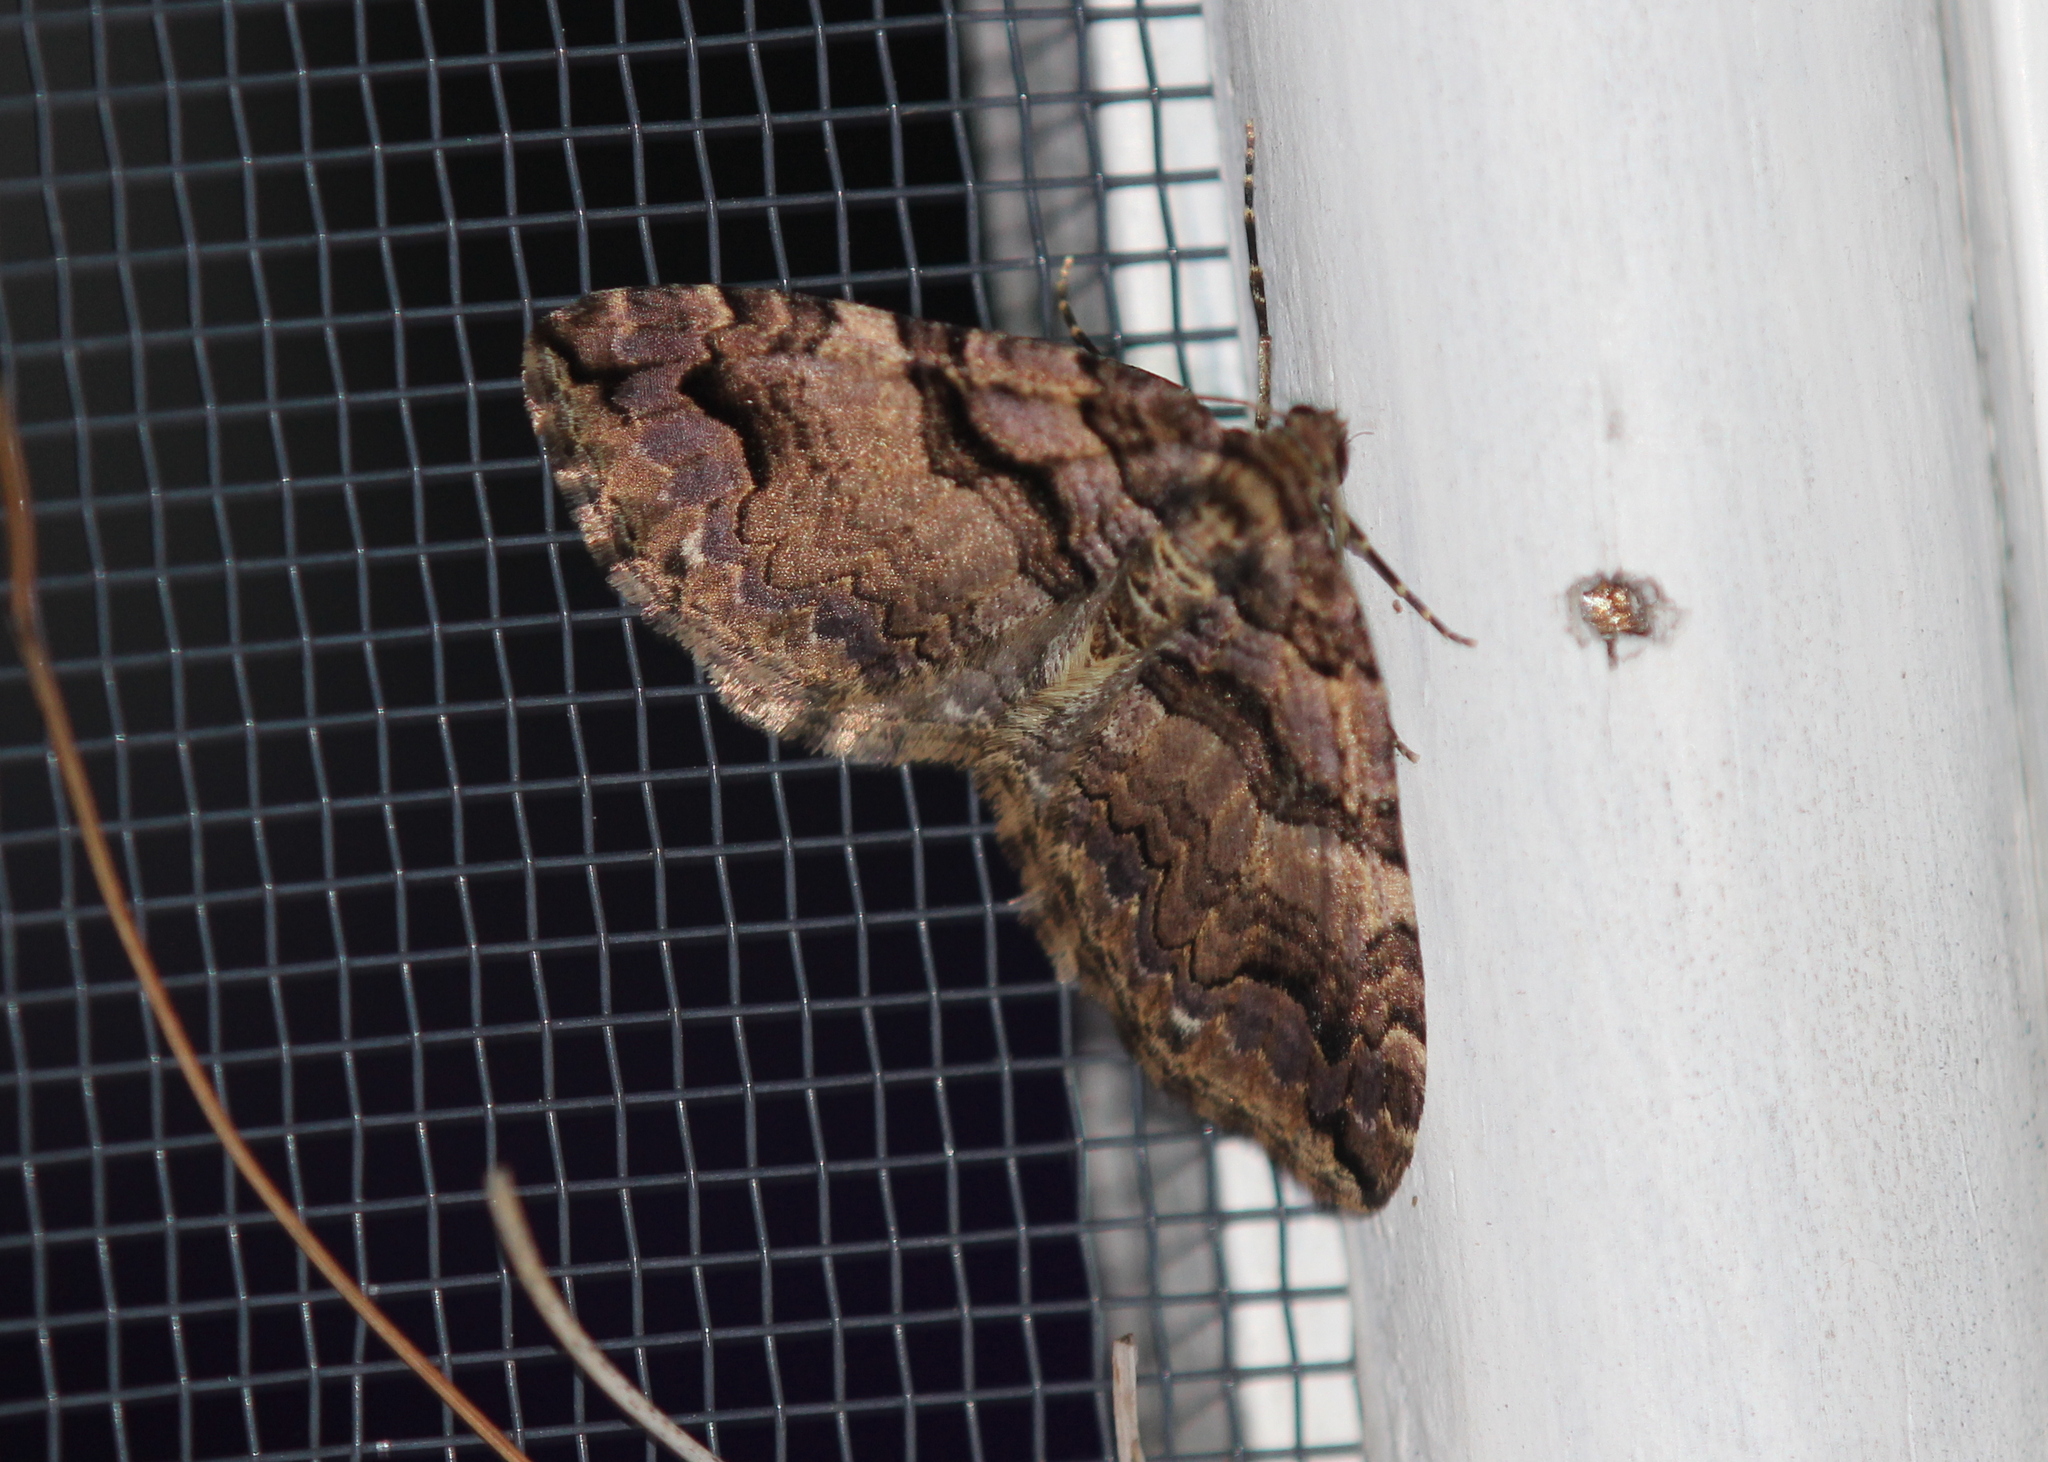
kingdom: Animalia
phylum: Arthropoda
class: Insecta
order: Lepidoptera
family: Geometridae
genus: Anticlea
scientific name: Anticlea vasiliata
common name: Variable carpet
